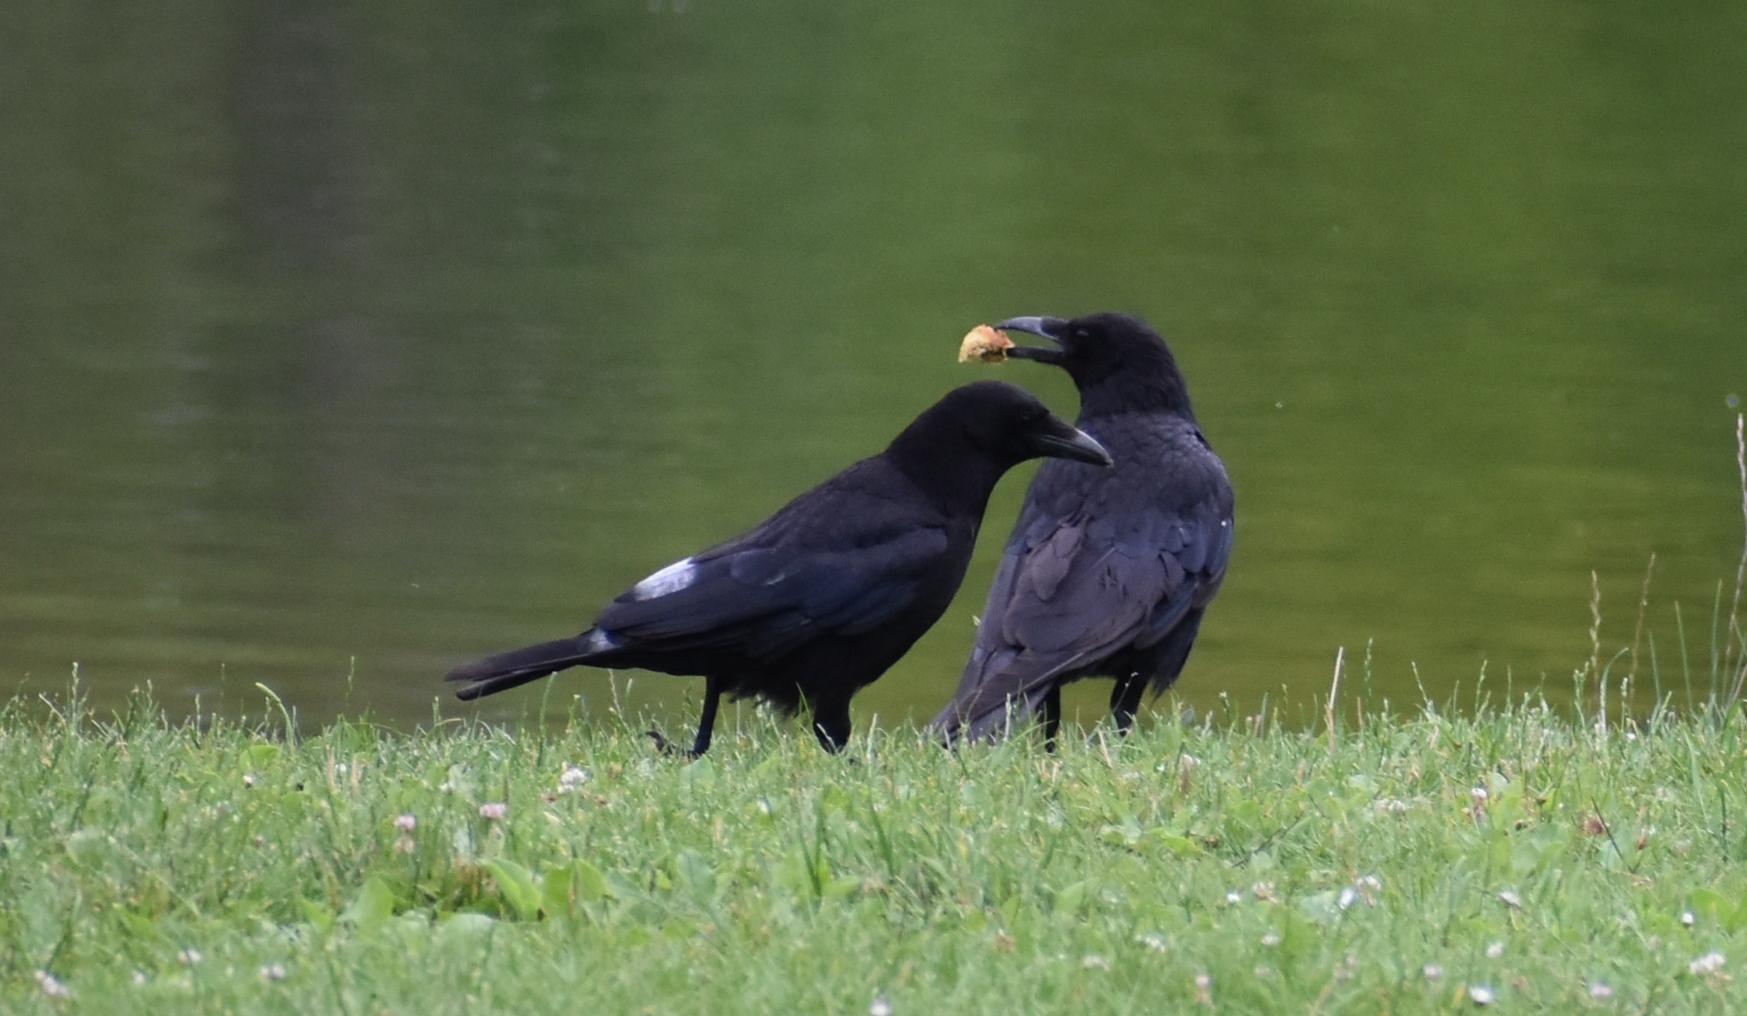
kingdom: Animalia
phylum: Chordata
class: Aves
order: Passeriformes
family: Corvidae
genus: Corvus
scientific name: Corvus corone
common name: Carrion crow
